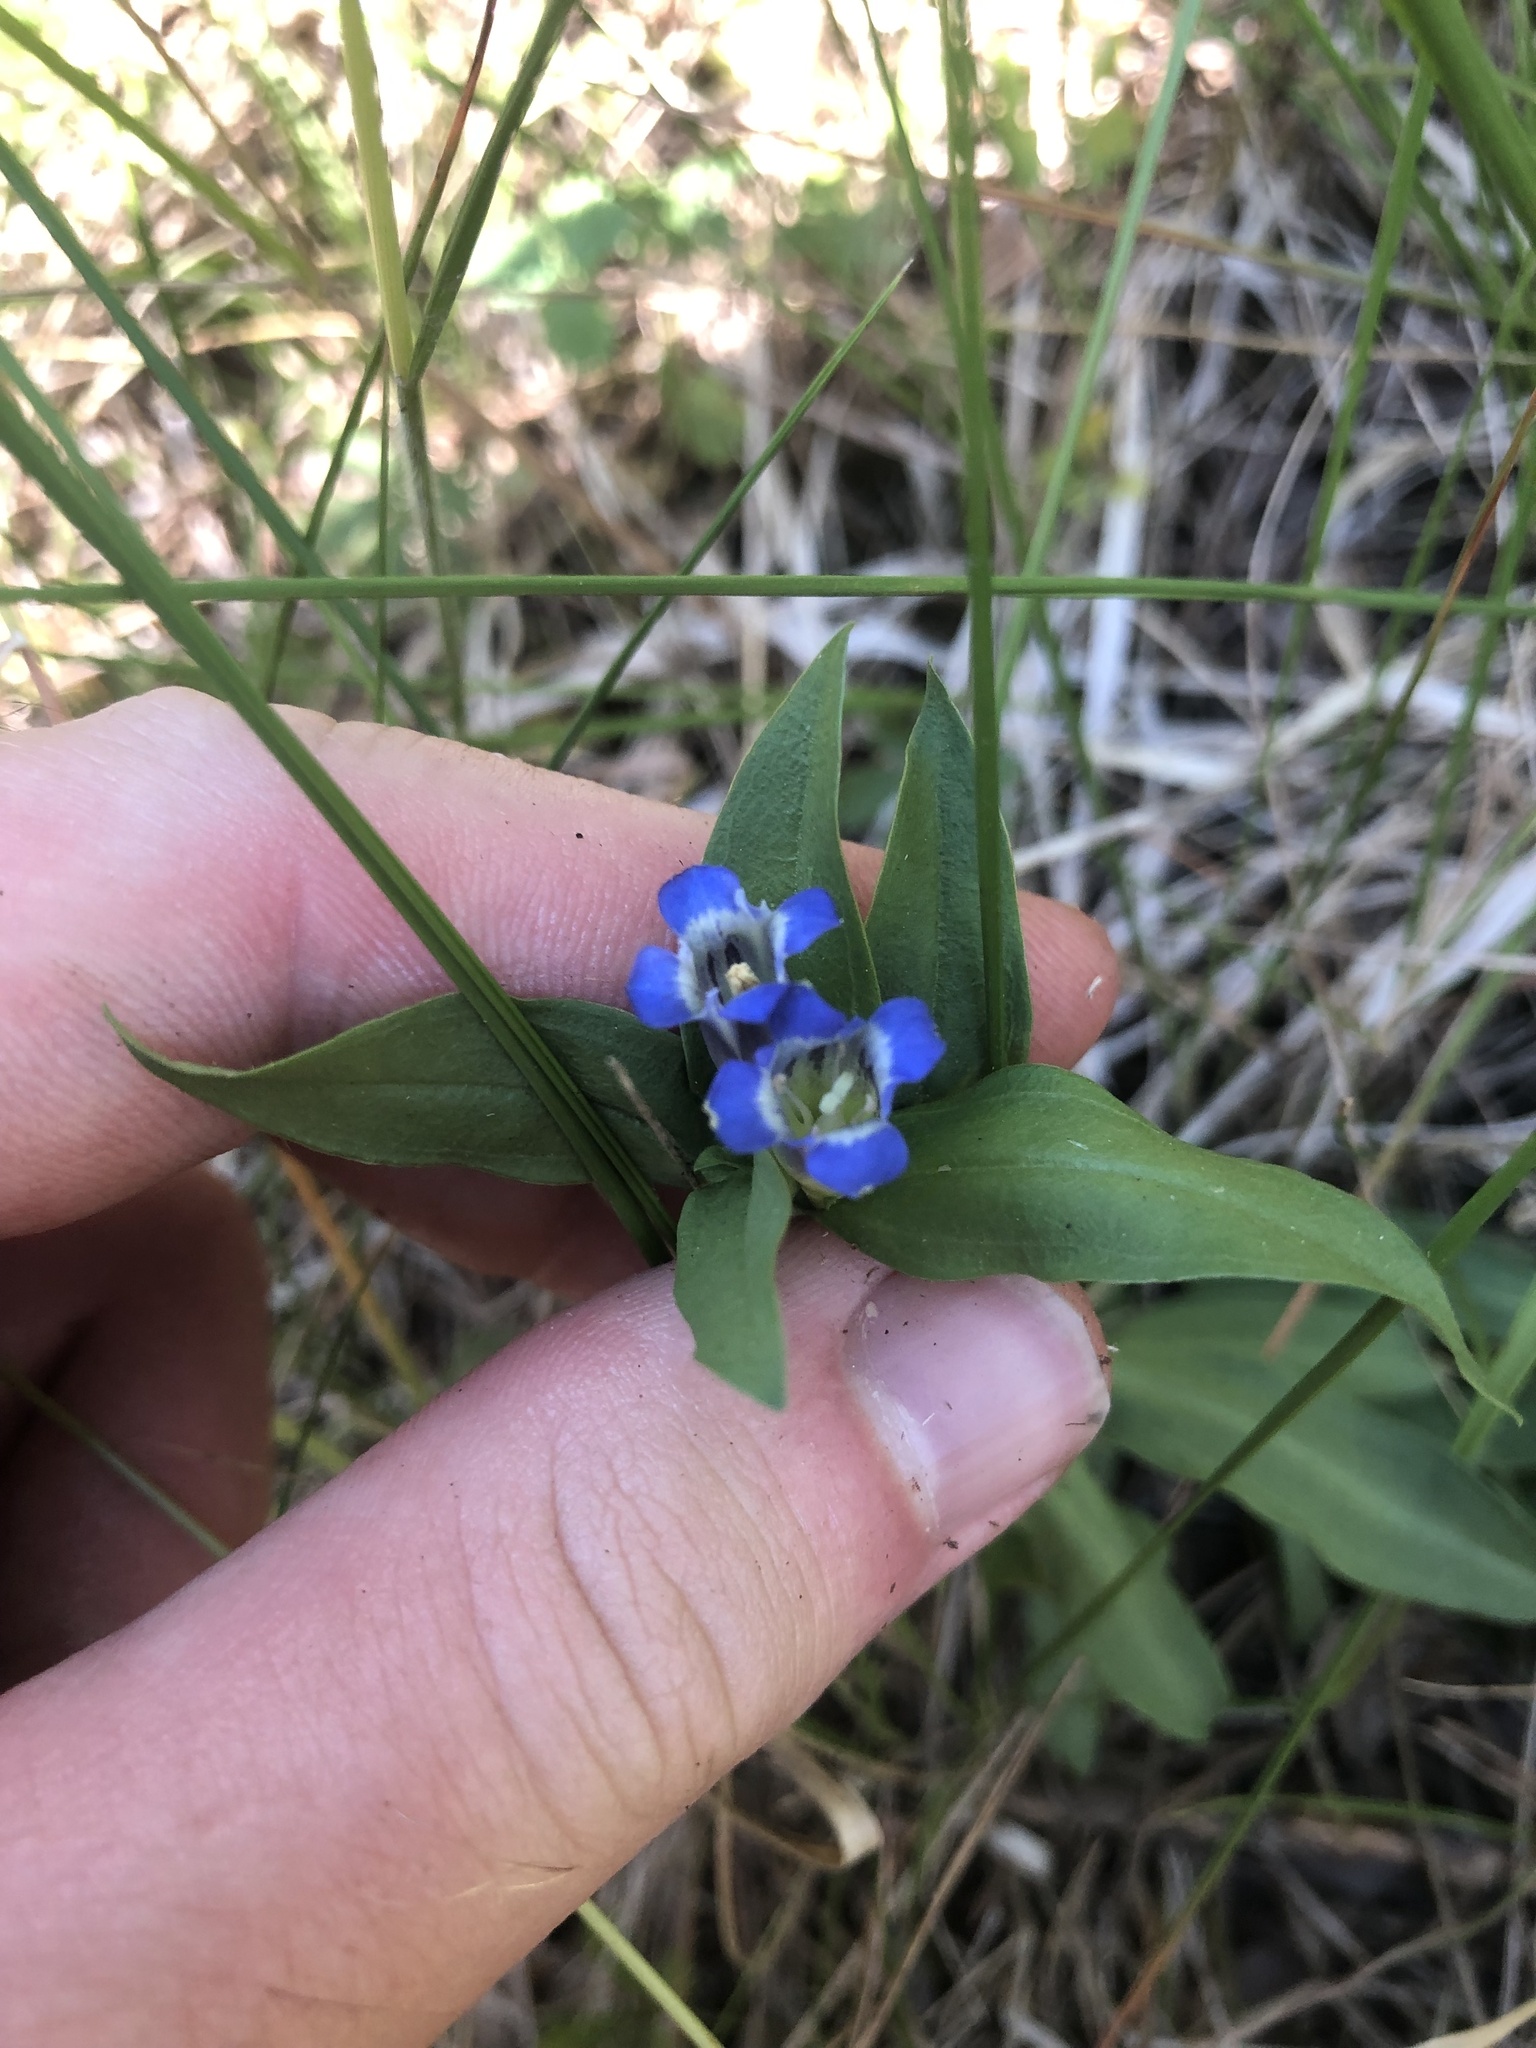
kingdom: Plantae
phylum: Tracheophyta
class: Magnoliopsida
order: Gentianales
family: Gentianaceae
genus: Gentiana
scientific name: Gentiana cruciata
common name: Cross gentian
